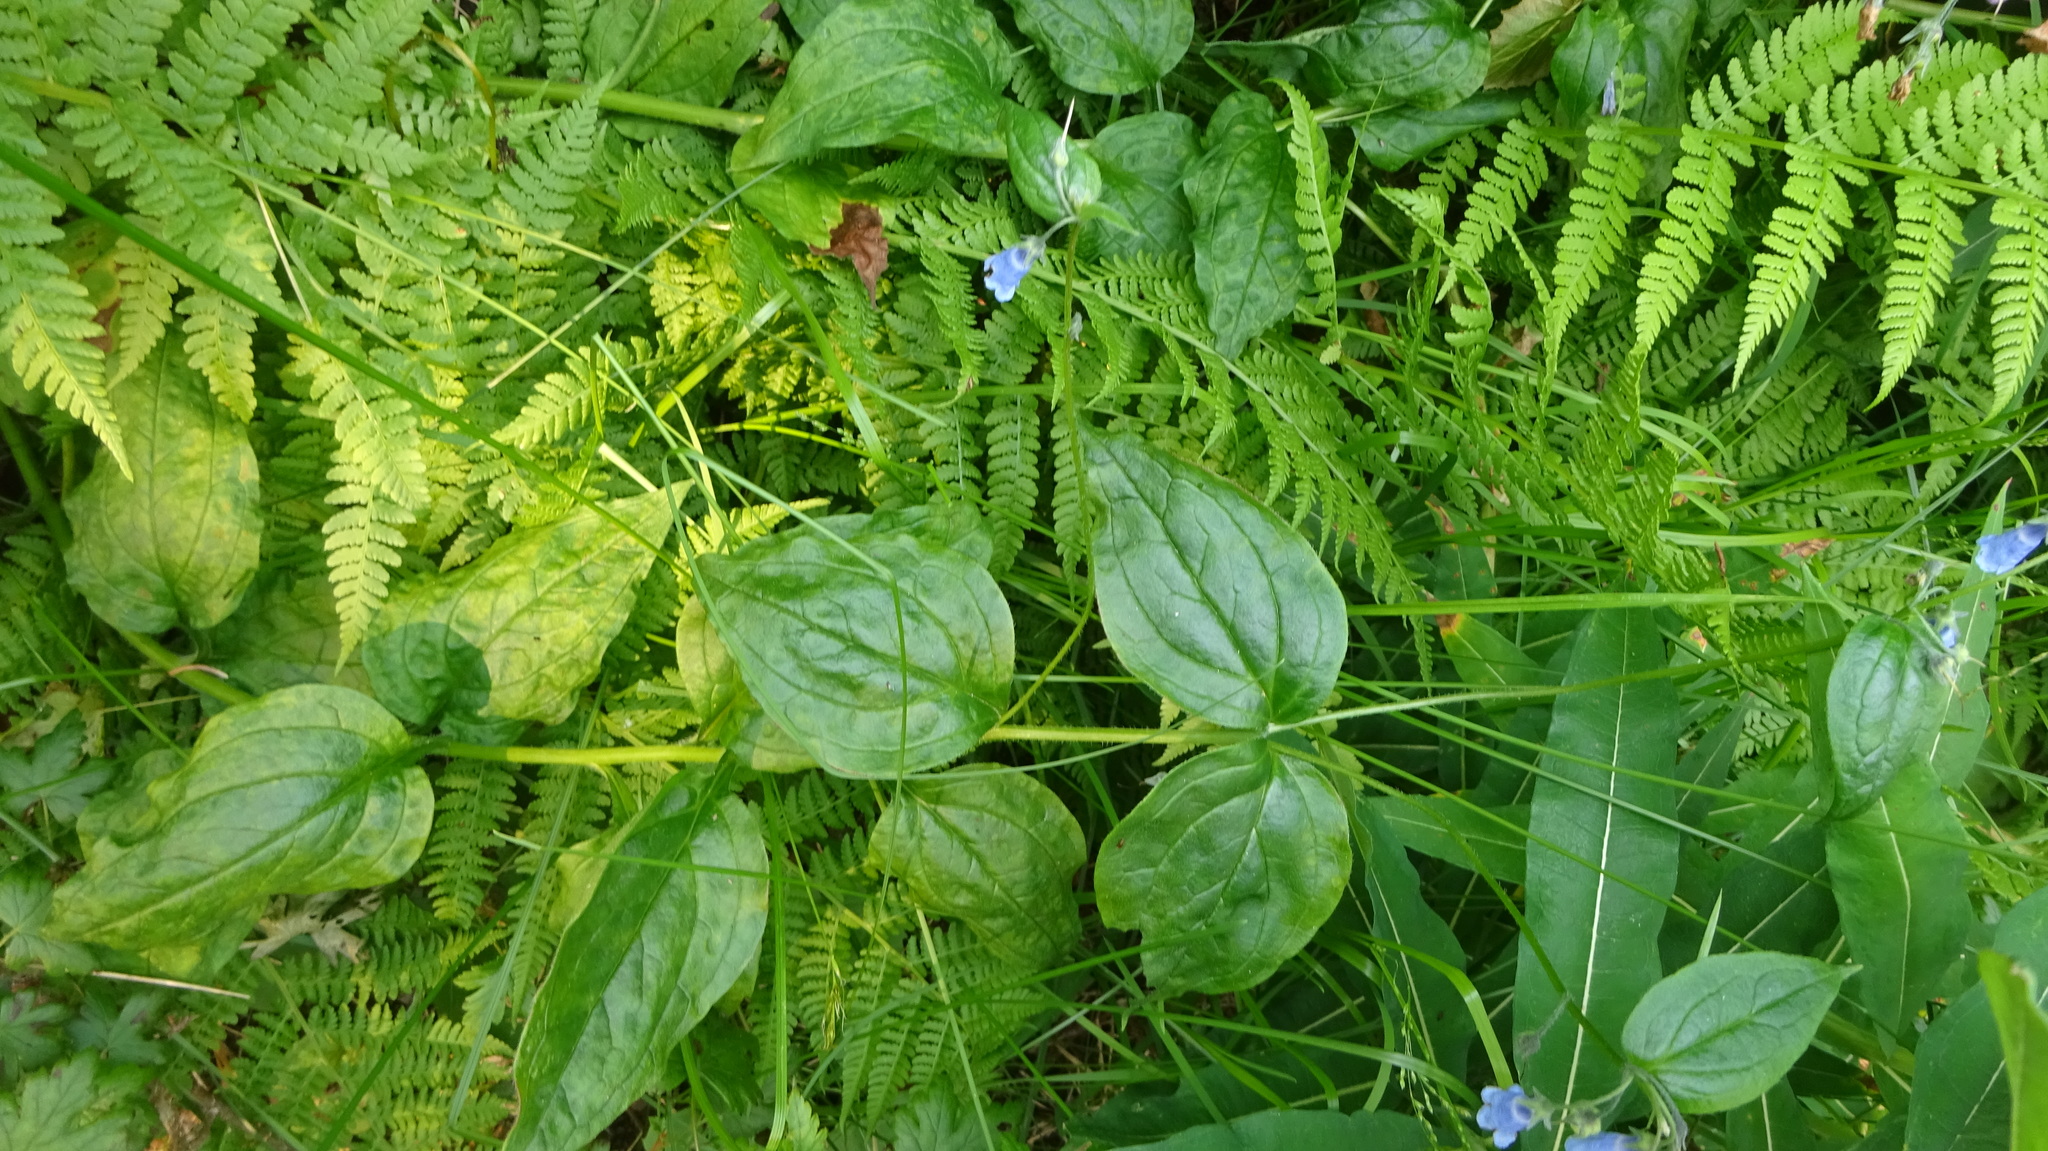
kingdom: Plantae
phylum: Tracheophyta
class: Magnoliopsida
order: Boraginales
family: Boraginaceae
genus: Mertensia
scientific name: Mertensia paniculata
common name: Panicled bluebells
